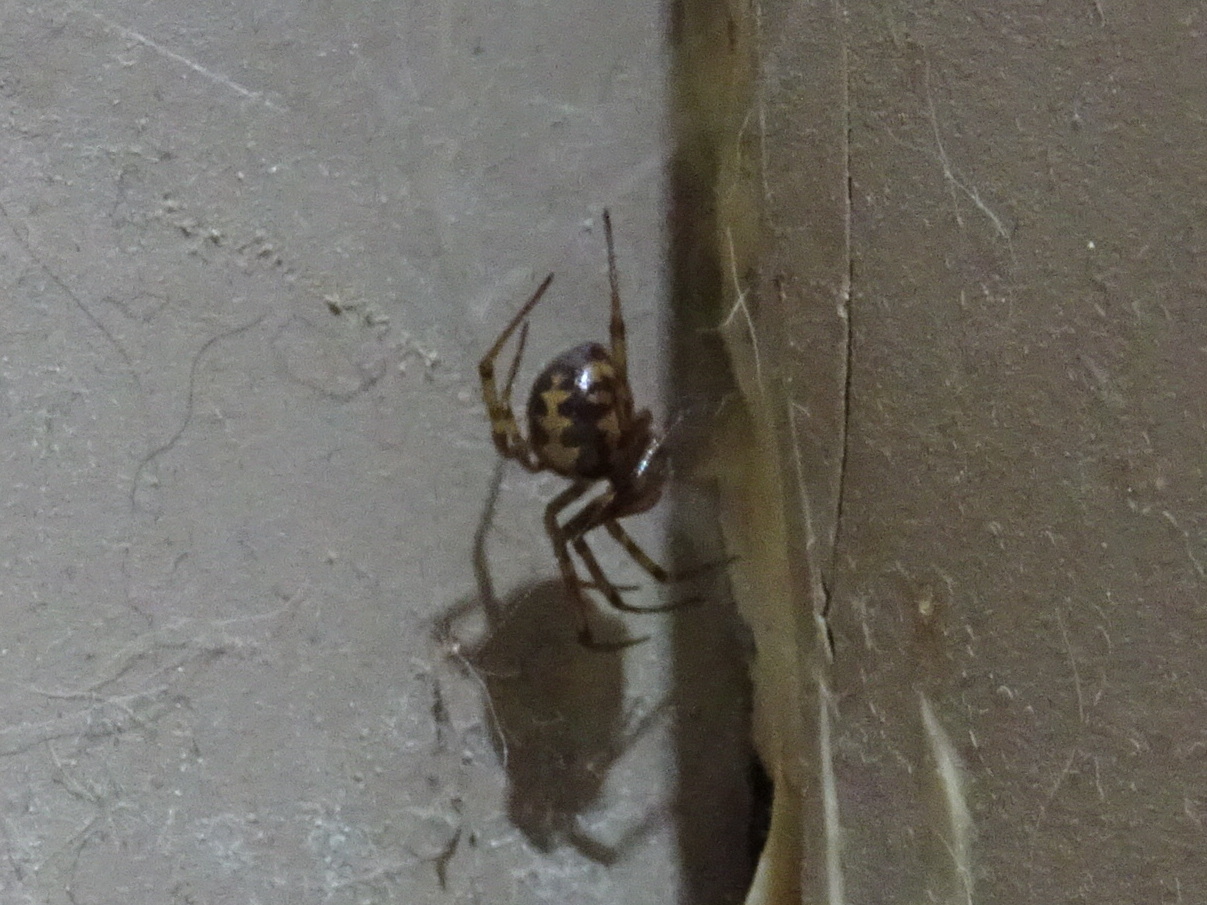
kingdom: Animalia
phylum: Arthropoda
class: Arachnida
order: Araneae
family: Theridiidae
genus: Steatoda
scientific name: Steatoda triangulosa
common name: Triangulate bud spider
